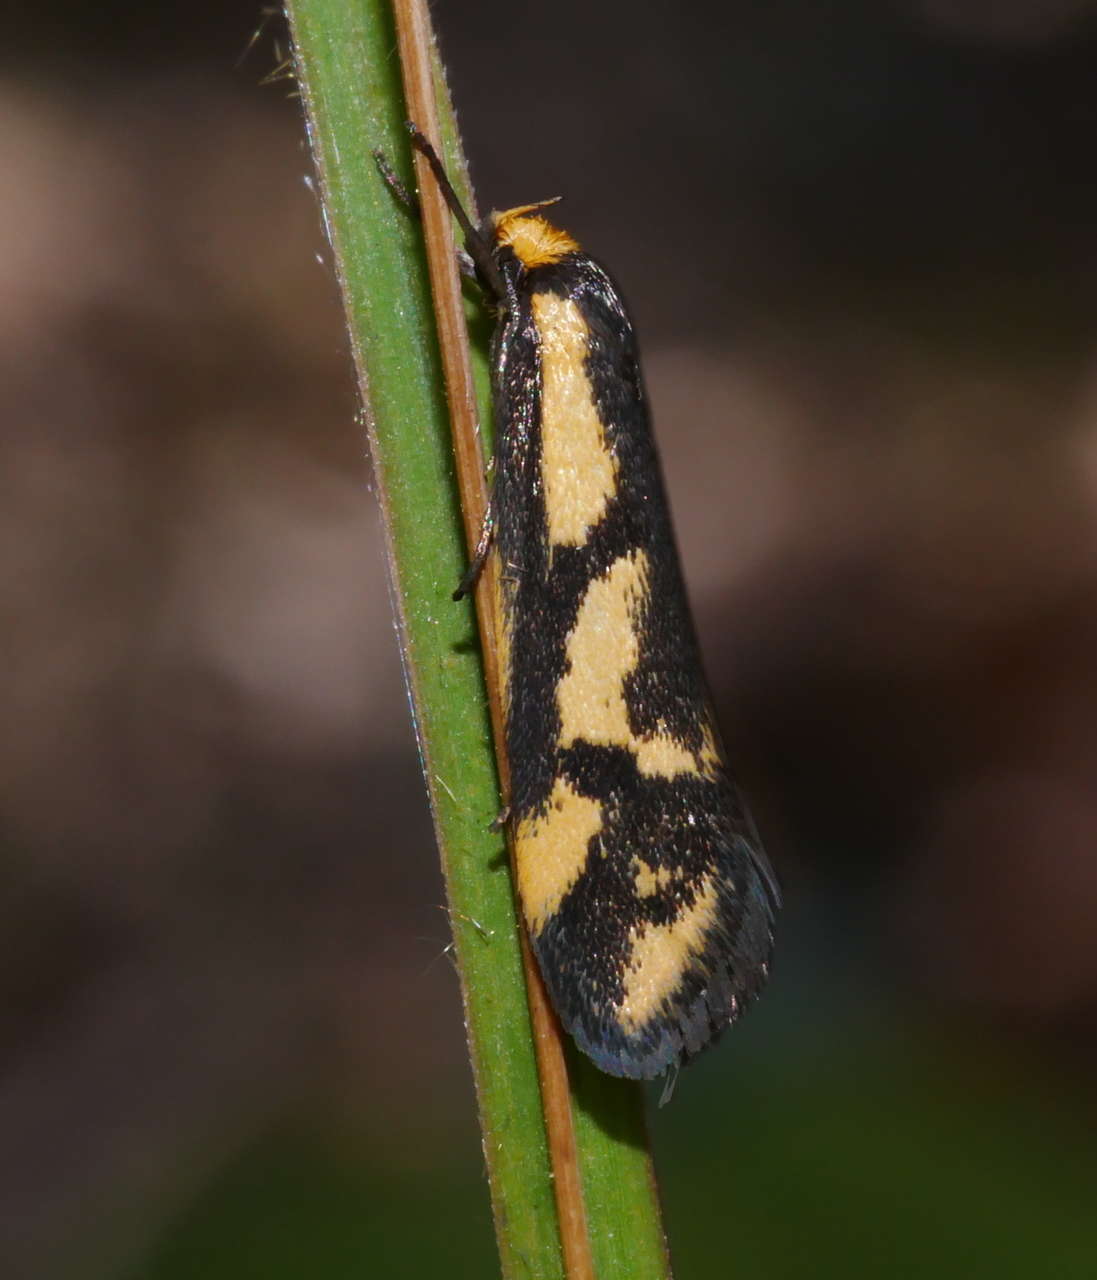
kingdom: Animalia
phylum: Arthropoda
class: Insecta
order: Lepidoptera
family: Oecophoridae
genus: Palimmeces
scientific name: Palimmeces poecilella
